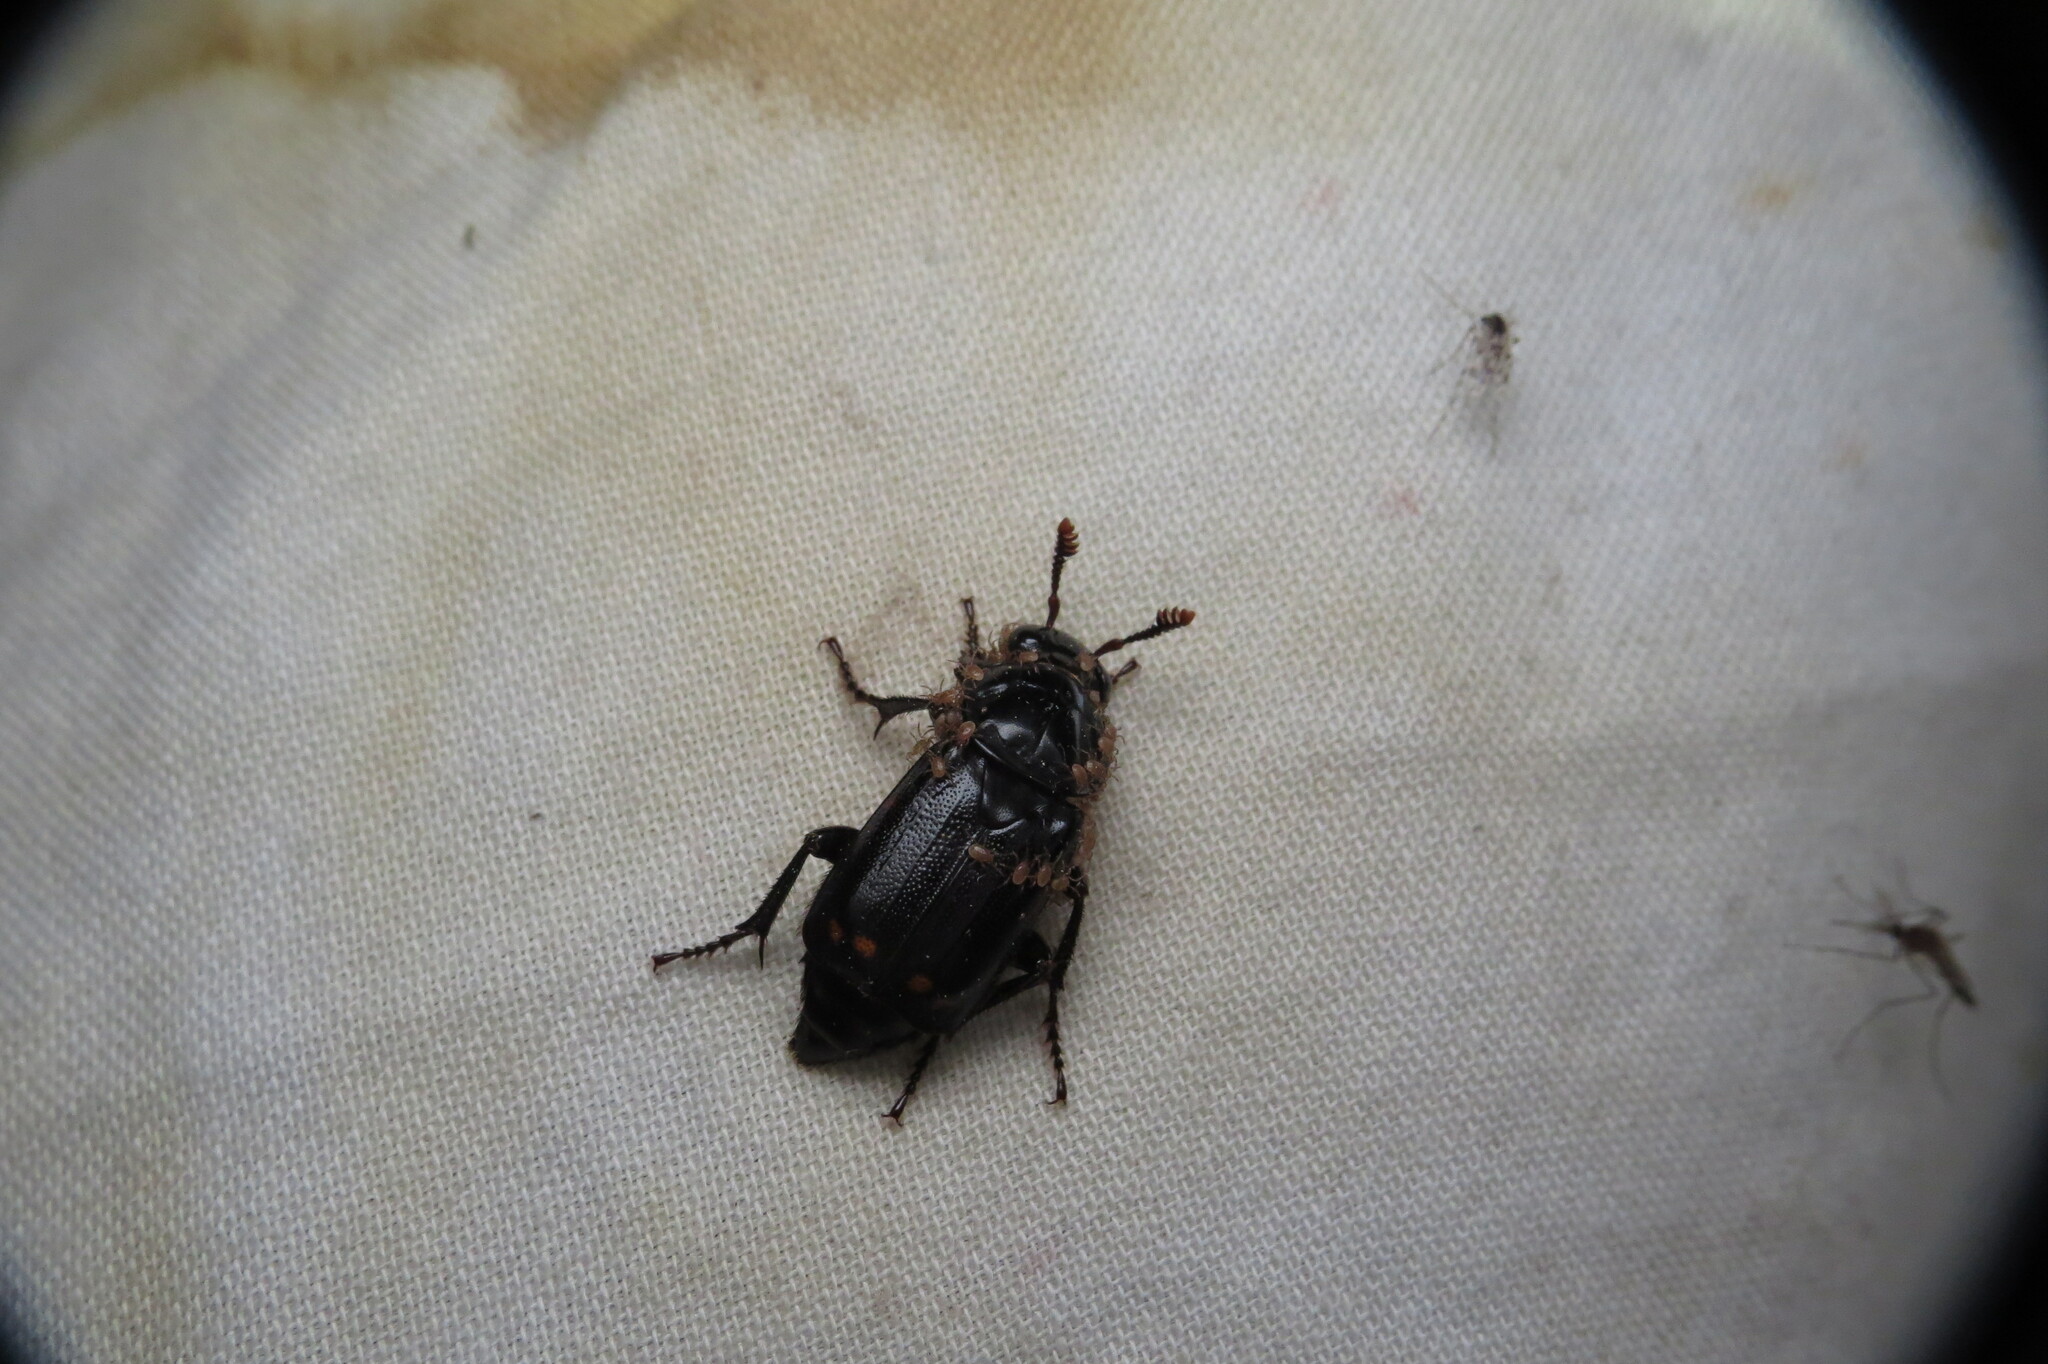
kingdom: Animalia
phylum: Arthropoda
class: Insecta
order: Coleoptera
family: Staphylinidae
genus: Nicrophorus
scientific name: Nicrophorus pustulatus
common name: Pustulated carrion beetle
